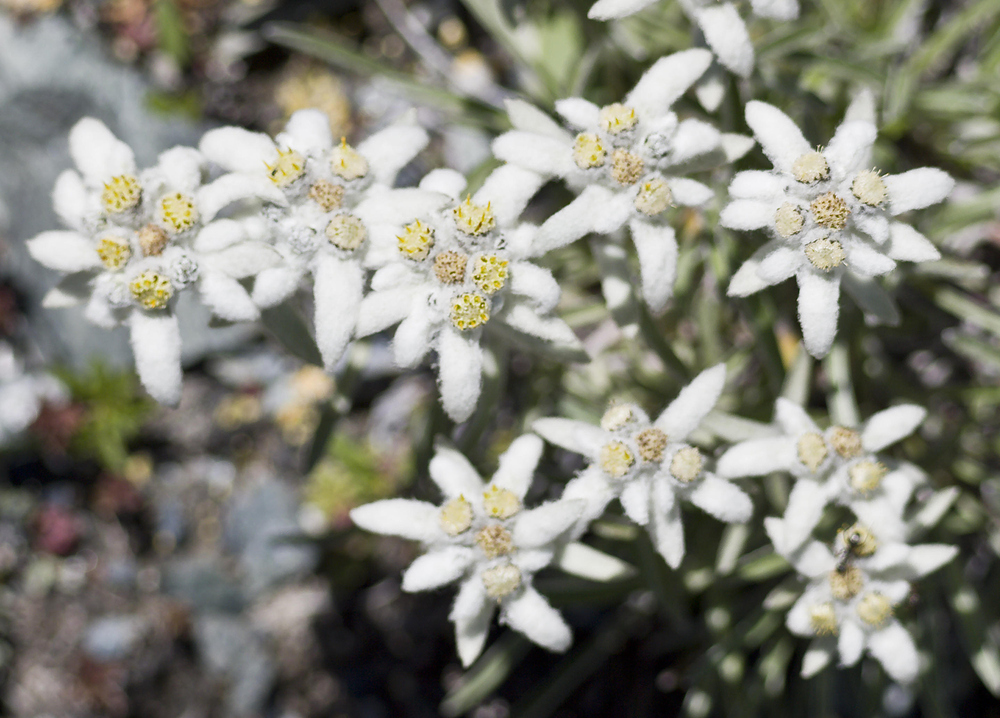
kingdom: Plantae
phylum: Tracheophyta
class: Magnoliopsida
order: Asterales
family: Asteraceae
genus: Leontopodium
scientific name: Leontopodium nivale
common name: Edelweiss
